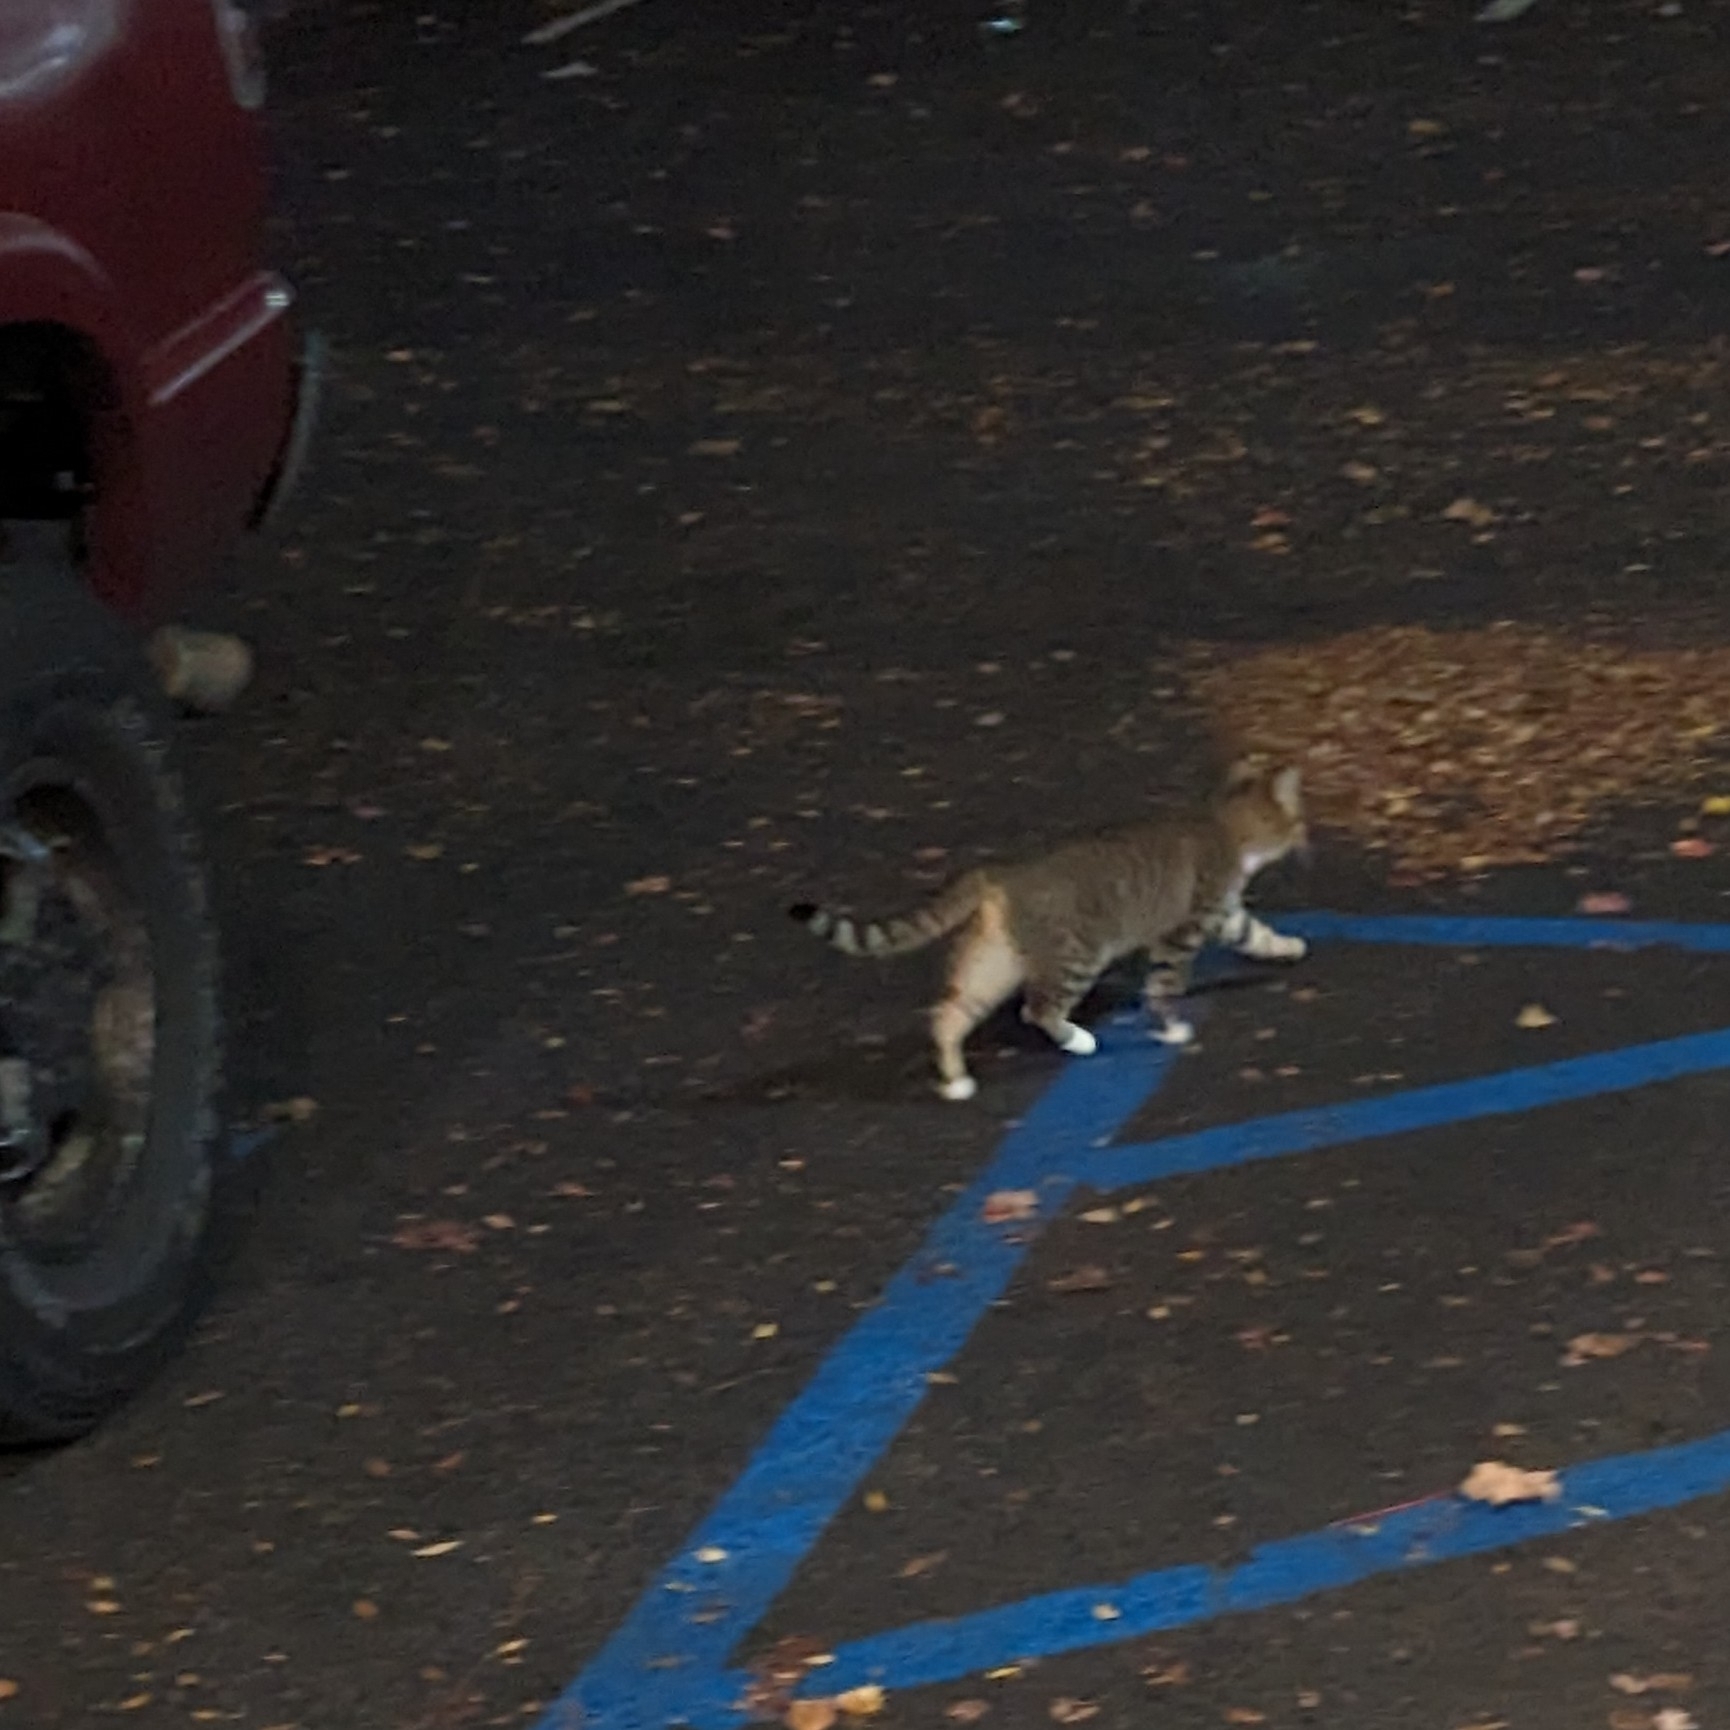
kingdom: Animalia
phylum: Chordata
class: Mammalia
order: Carnivora
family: Felidae
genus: Felis
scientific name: Felis catus
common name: Domestic cat
